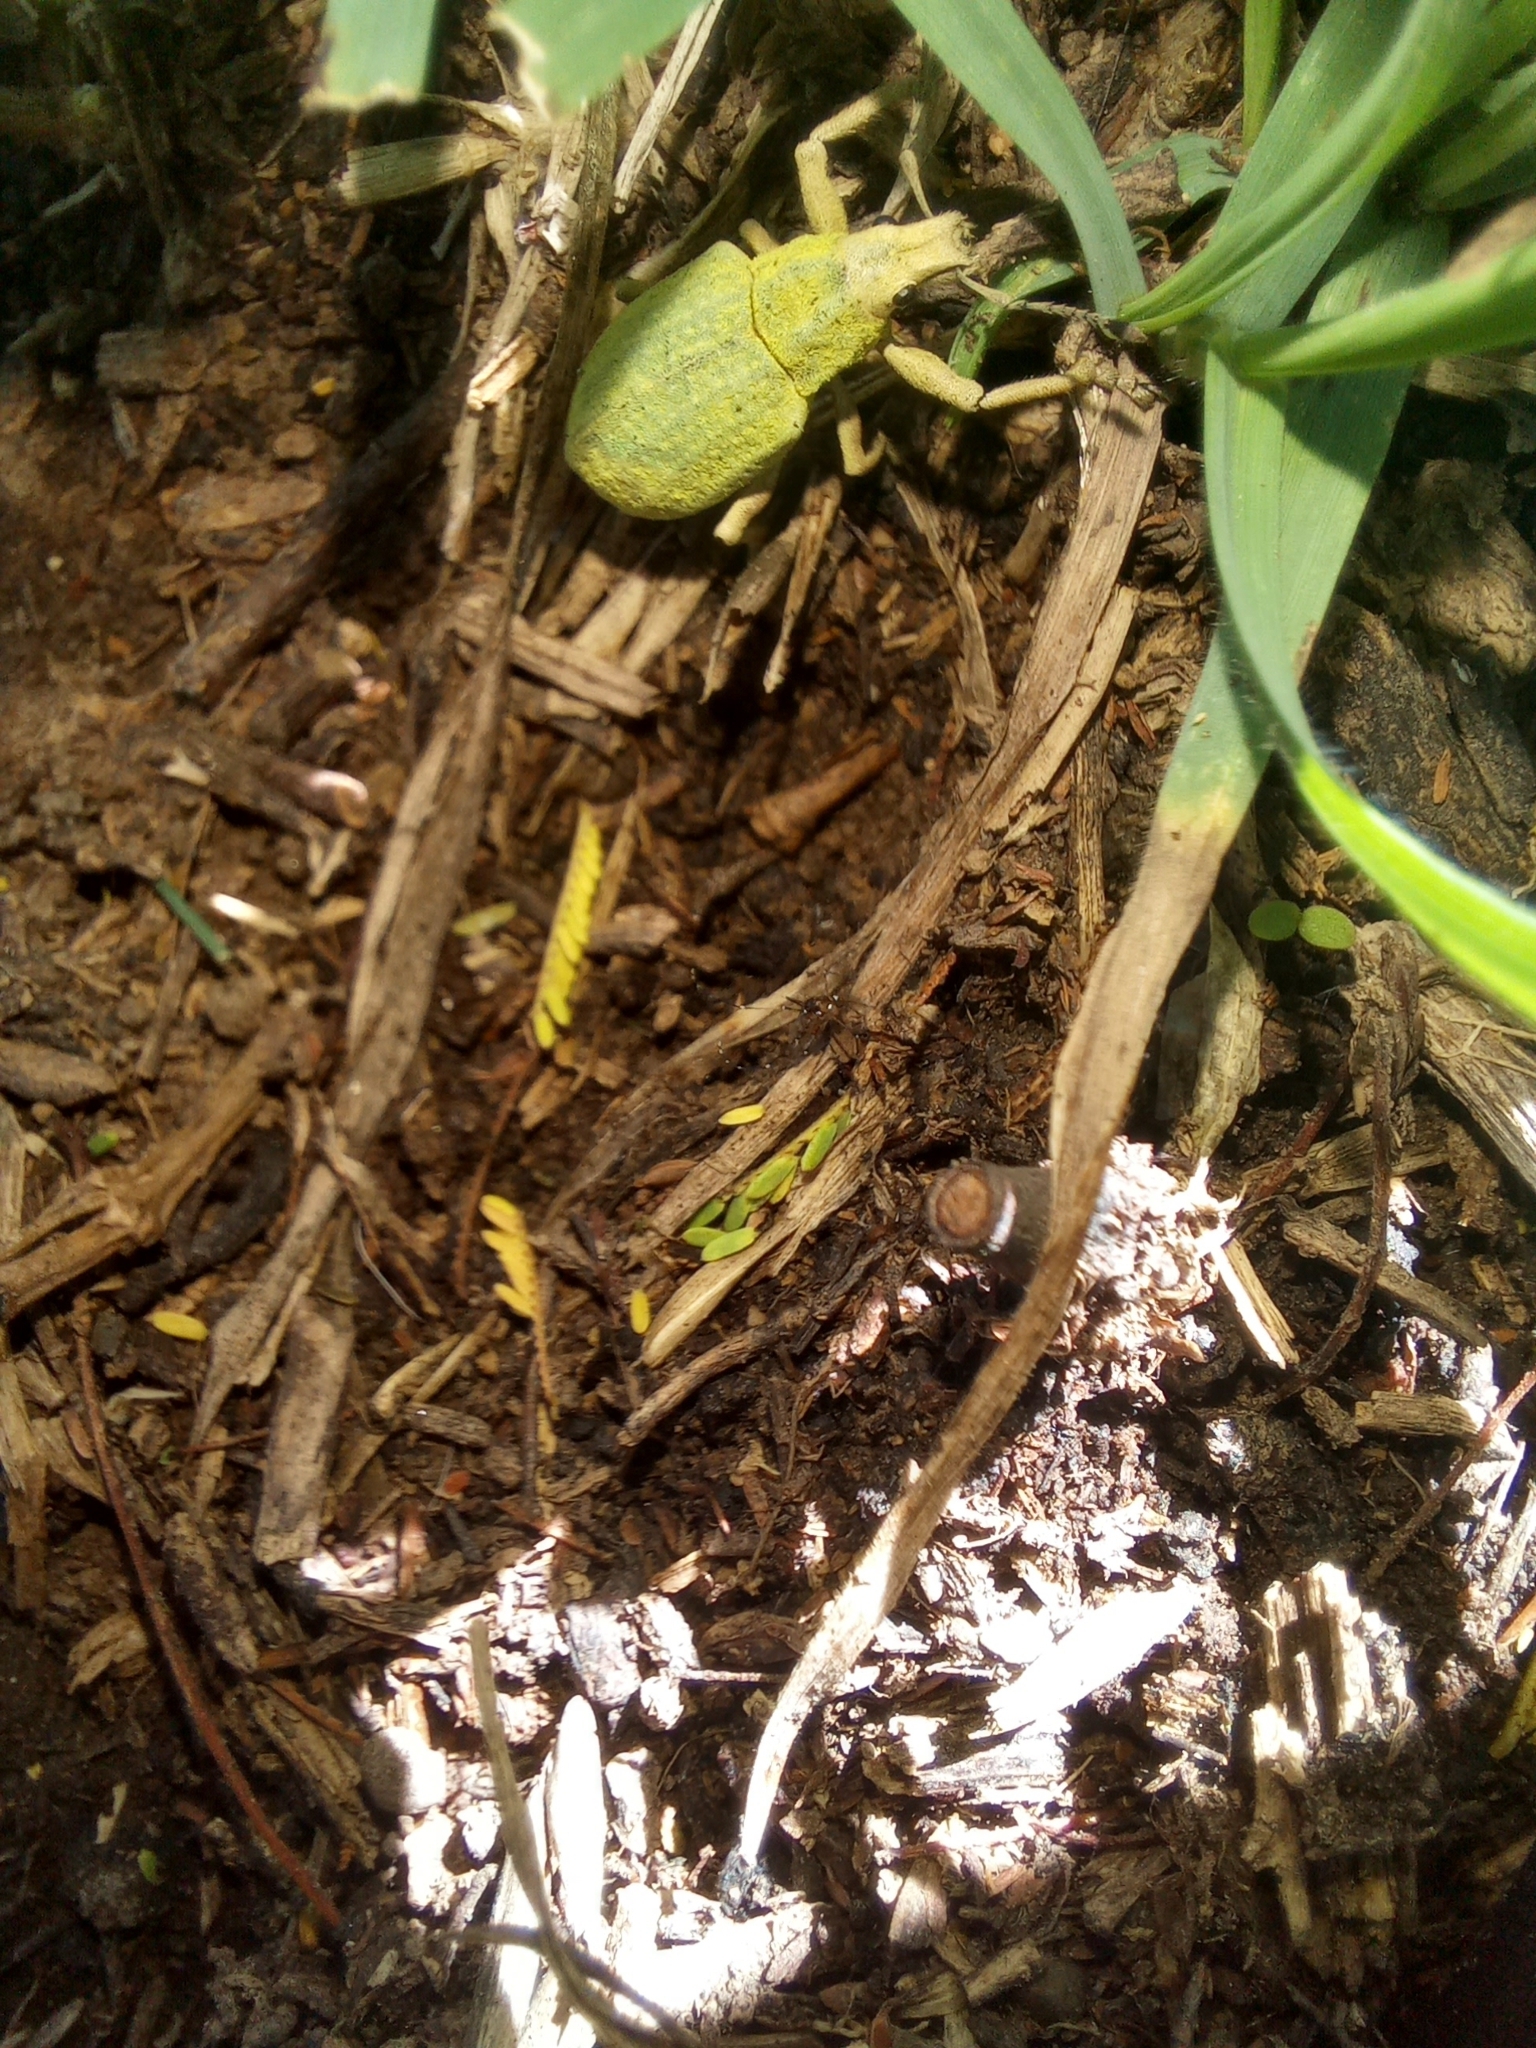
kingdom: Animalia
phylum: Arthropoda
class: Insecta
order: Coleoptera
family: Curculionidae
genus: Cyrtomon
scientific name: Cyrtomon inhalatus
